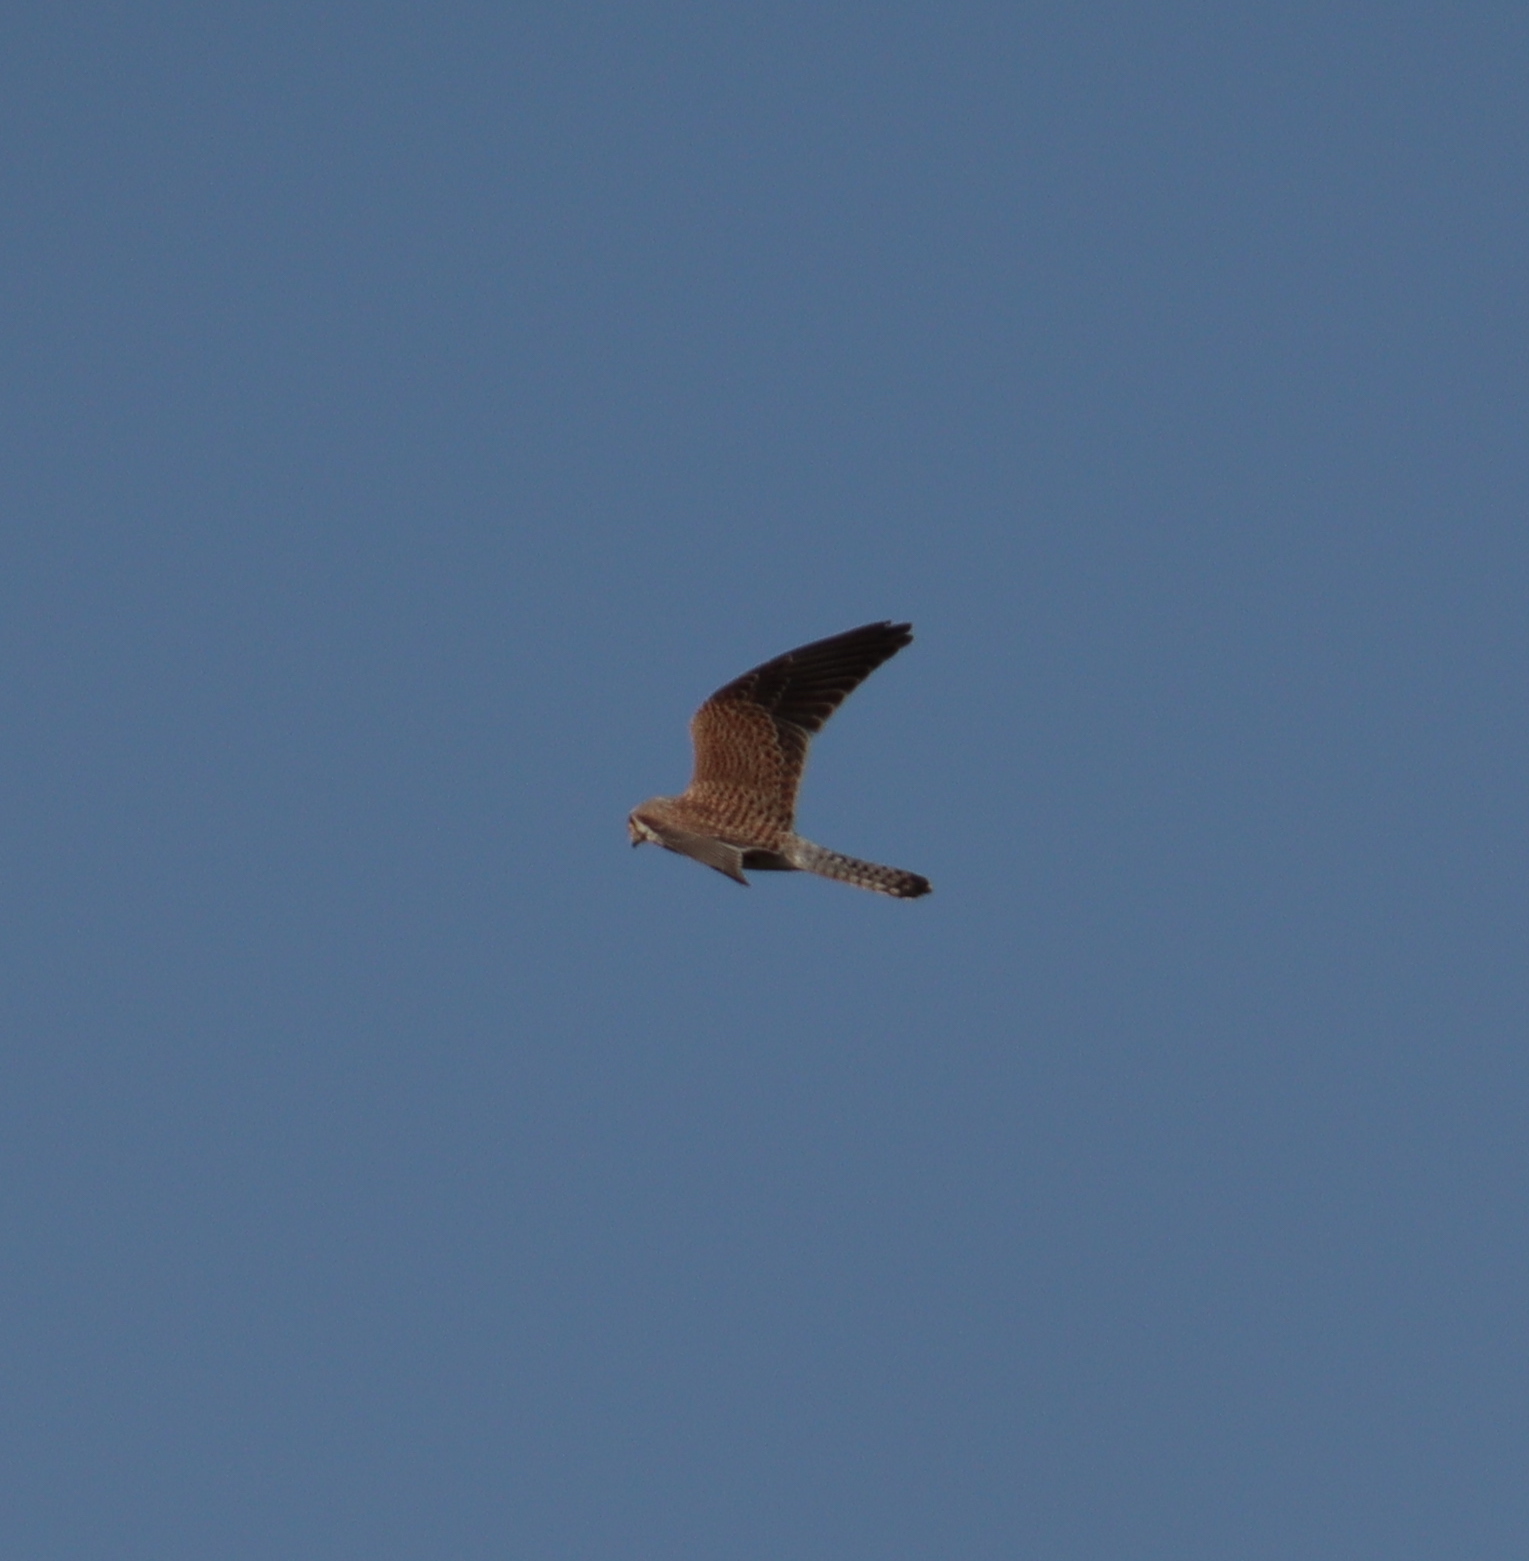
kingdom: Animalia
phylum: Chordata
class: Aves
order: Falconiformes
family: Falconidae
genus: Falco
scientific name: Falco tinnunculus
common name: Common kestrel
